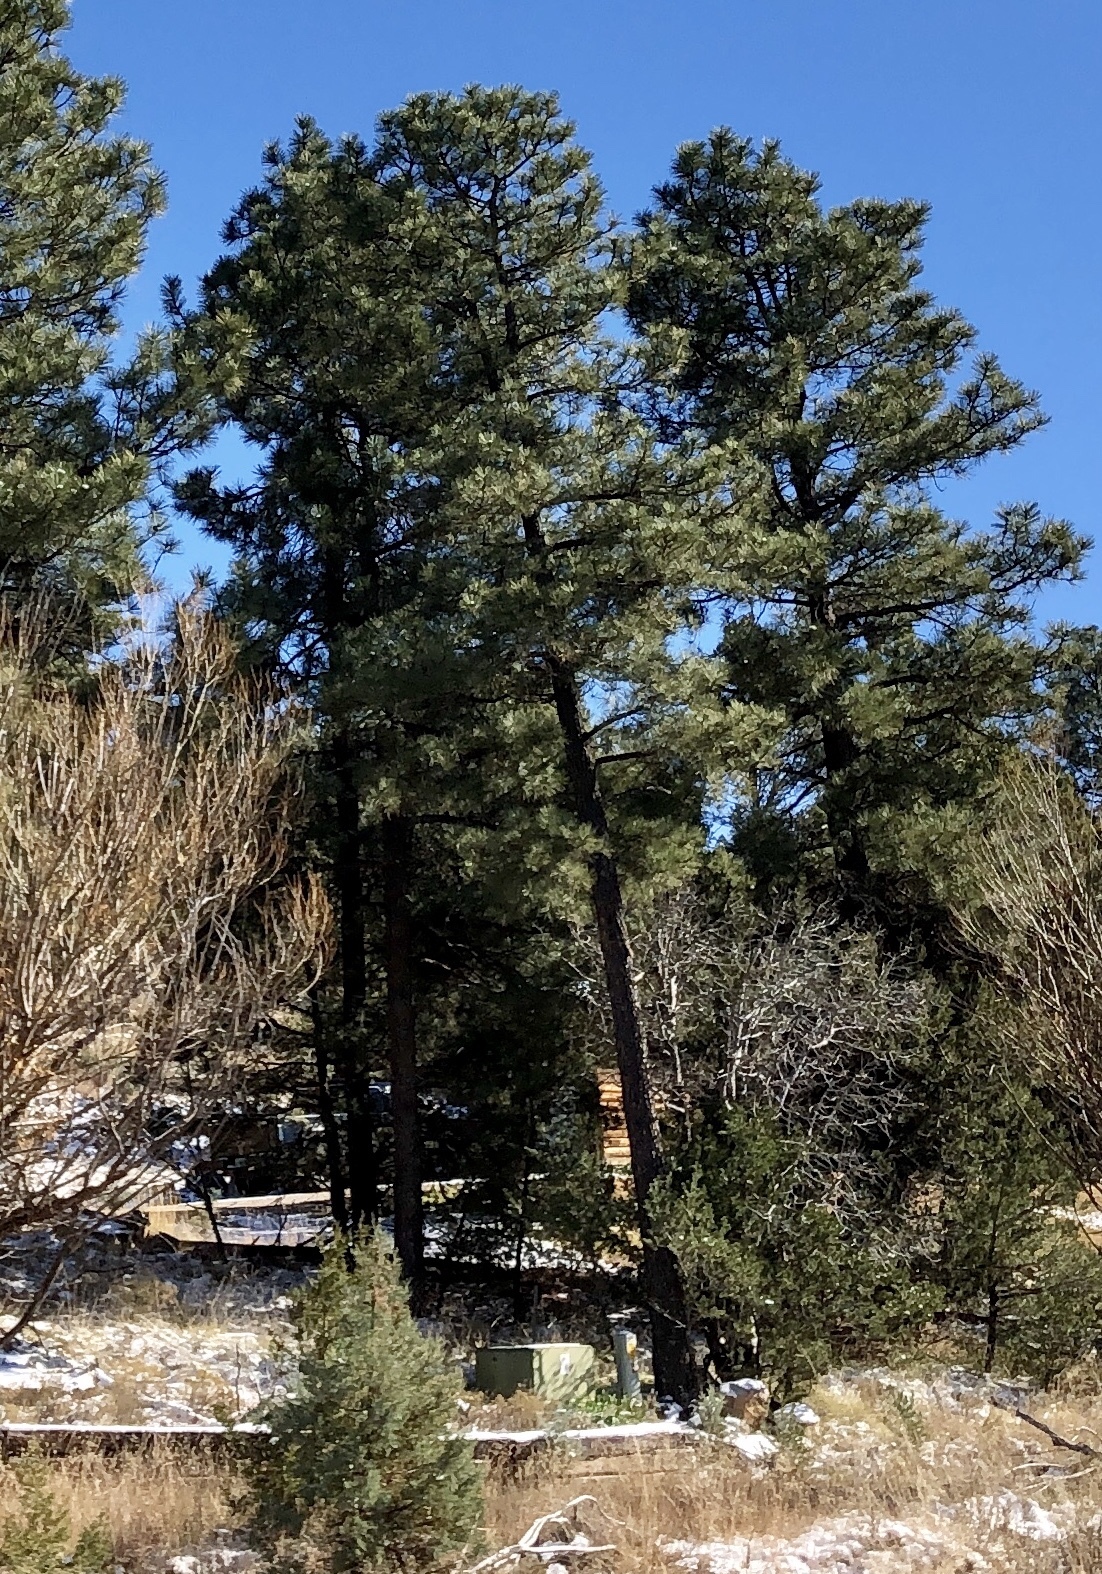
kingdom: Plantae
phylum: Tracheophyta
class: Pinopsida
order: Pinales
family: Pinaceae
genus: Pinus
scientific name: Pinus ponderosa
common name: Western yellow-pine
